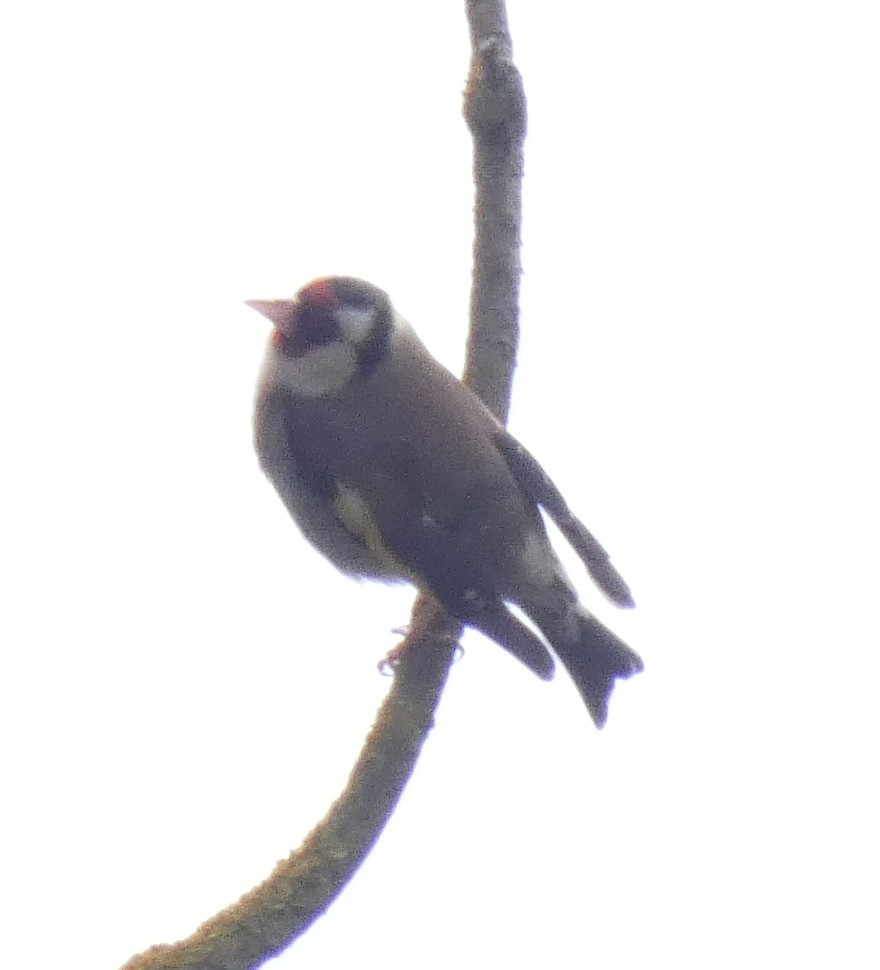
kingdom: Animalia
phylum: Chordata
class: Aves
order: Passeriformes
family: Fringillidae
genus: Carduelis
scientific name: Carduelis carduelis
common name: European goldfinch
